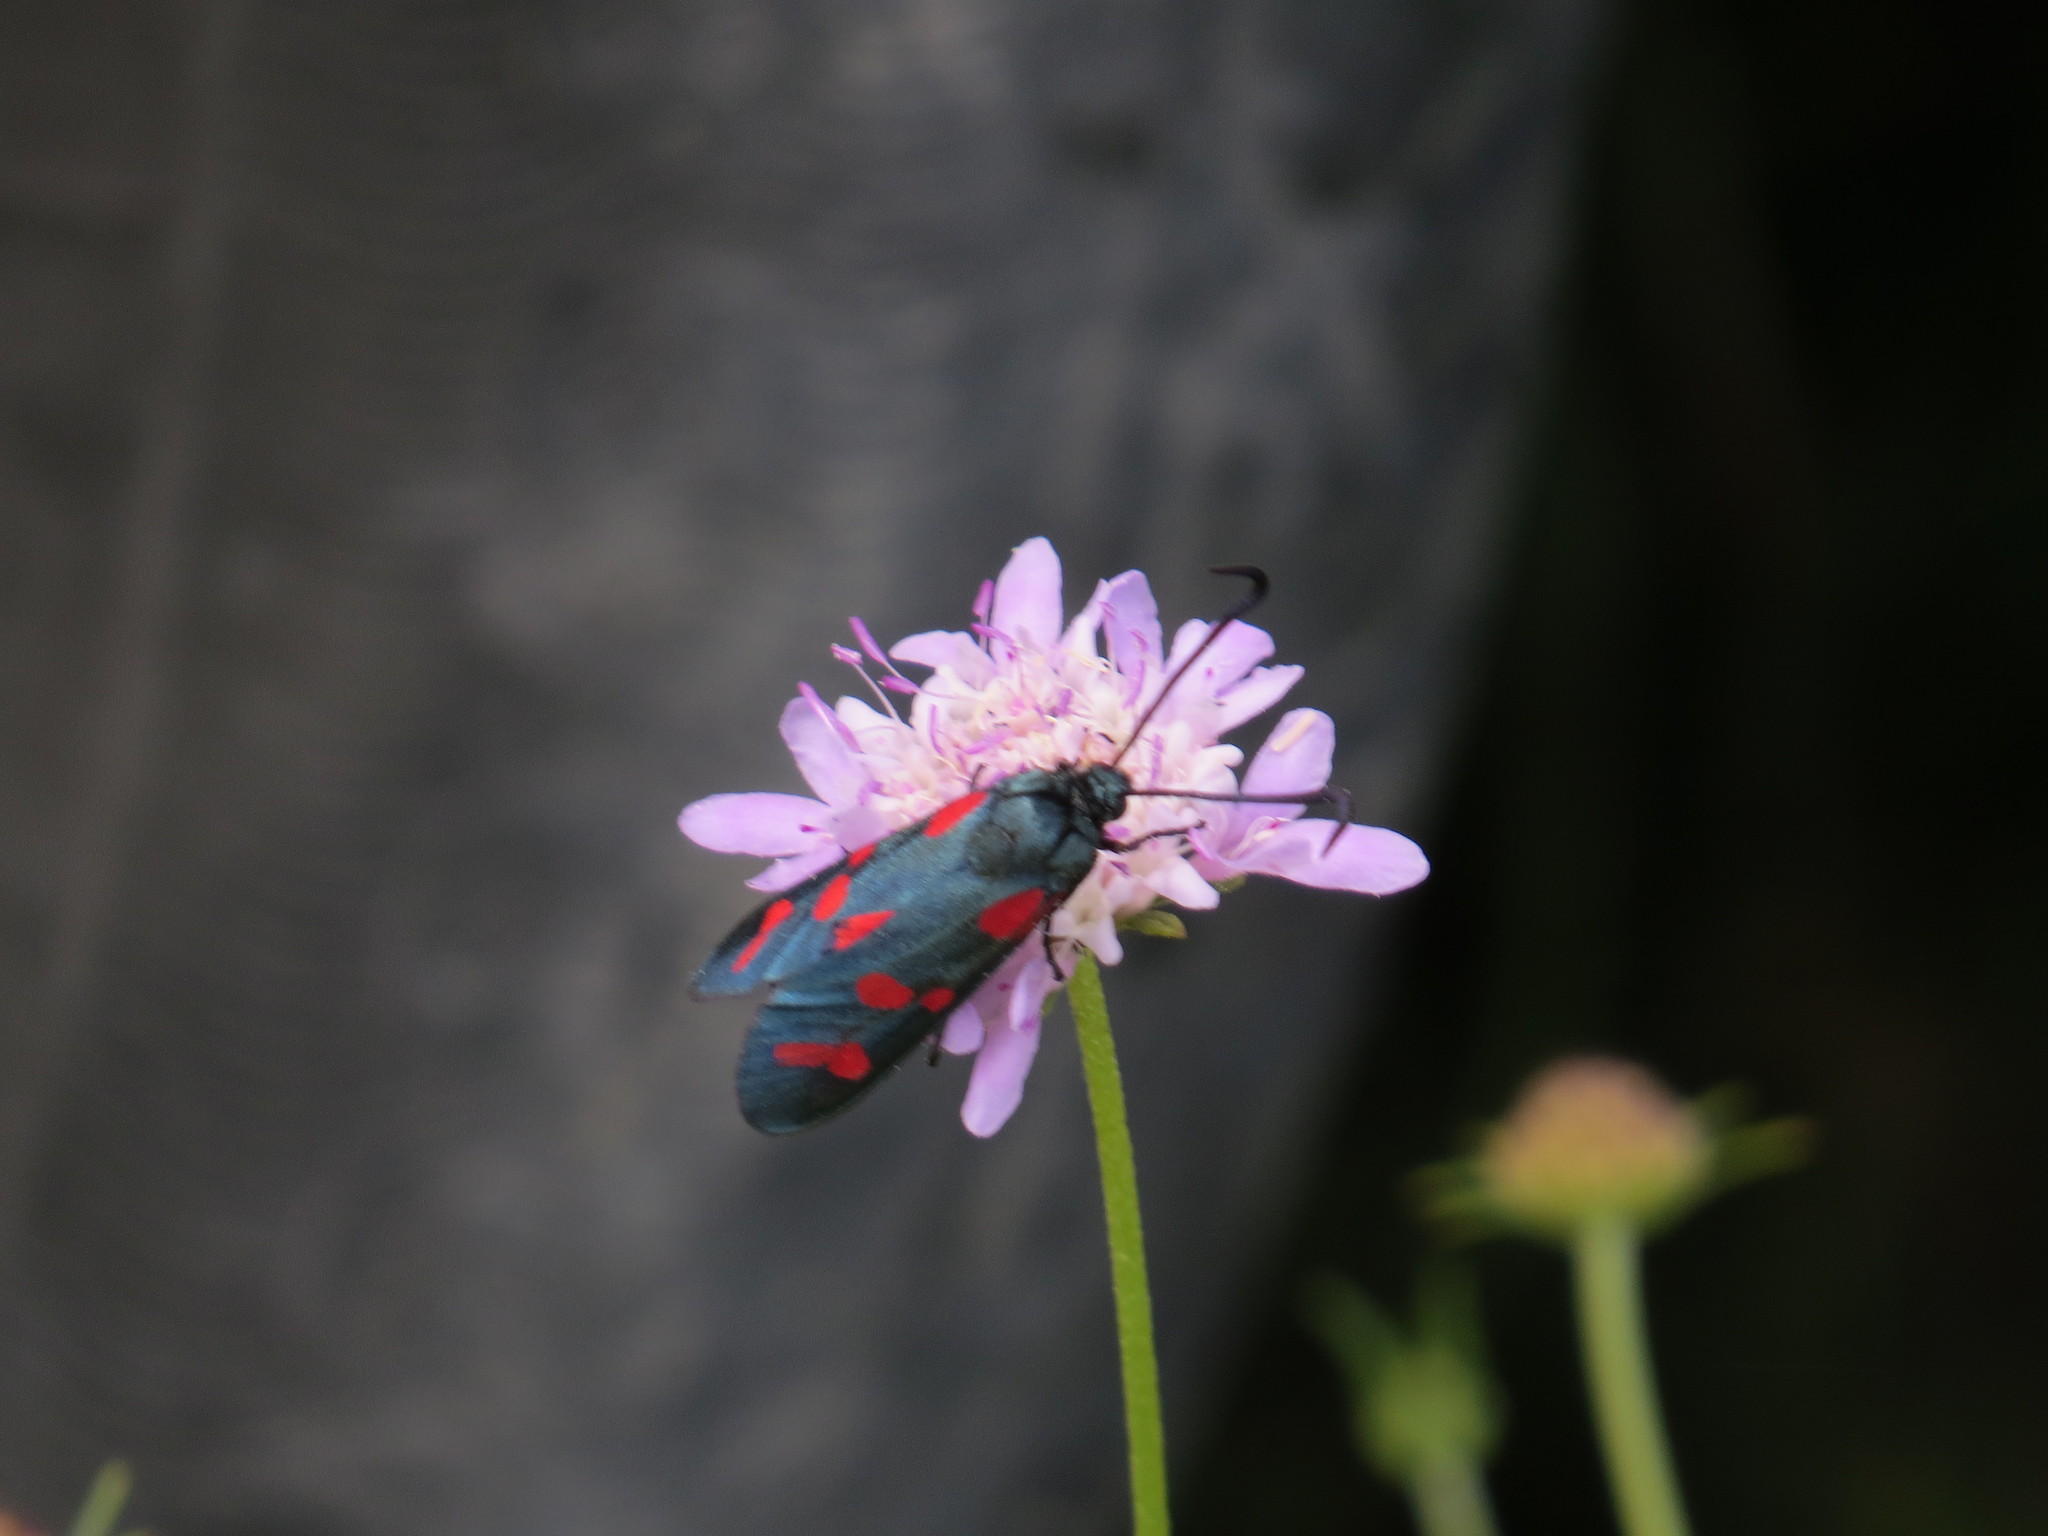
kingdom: Animalia
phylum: Arthropoda
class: Insecta
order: Lepidoptera
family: Zygaenidae
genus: Zygaena
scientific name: Zygaena filipendulae
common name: Six-spot burnet
